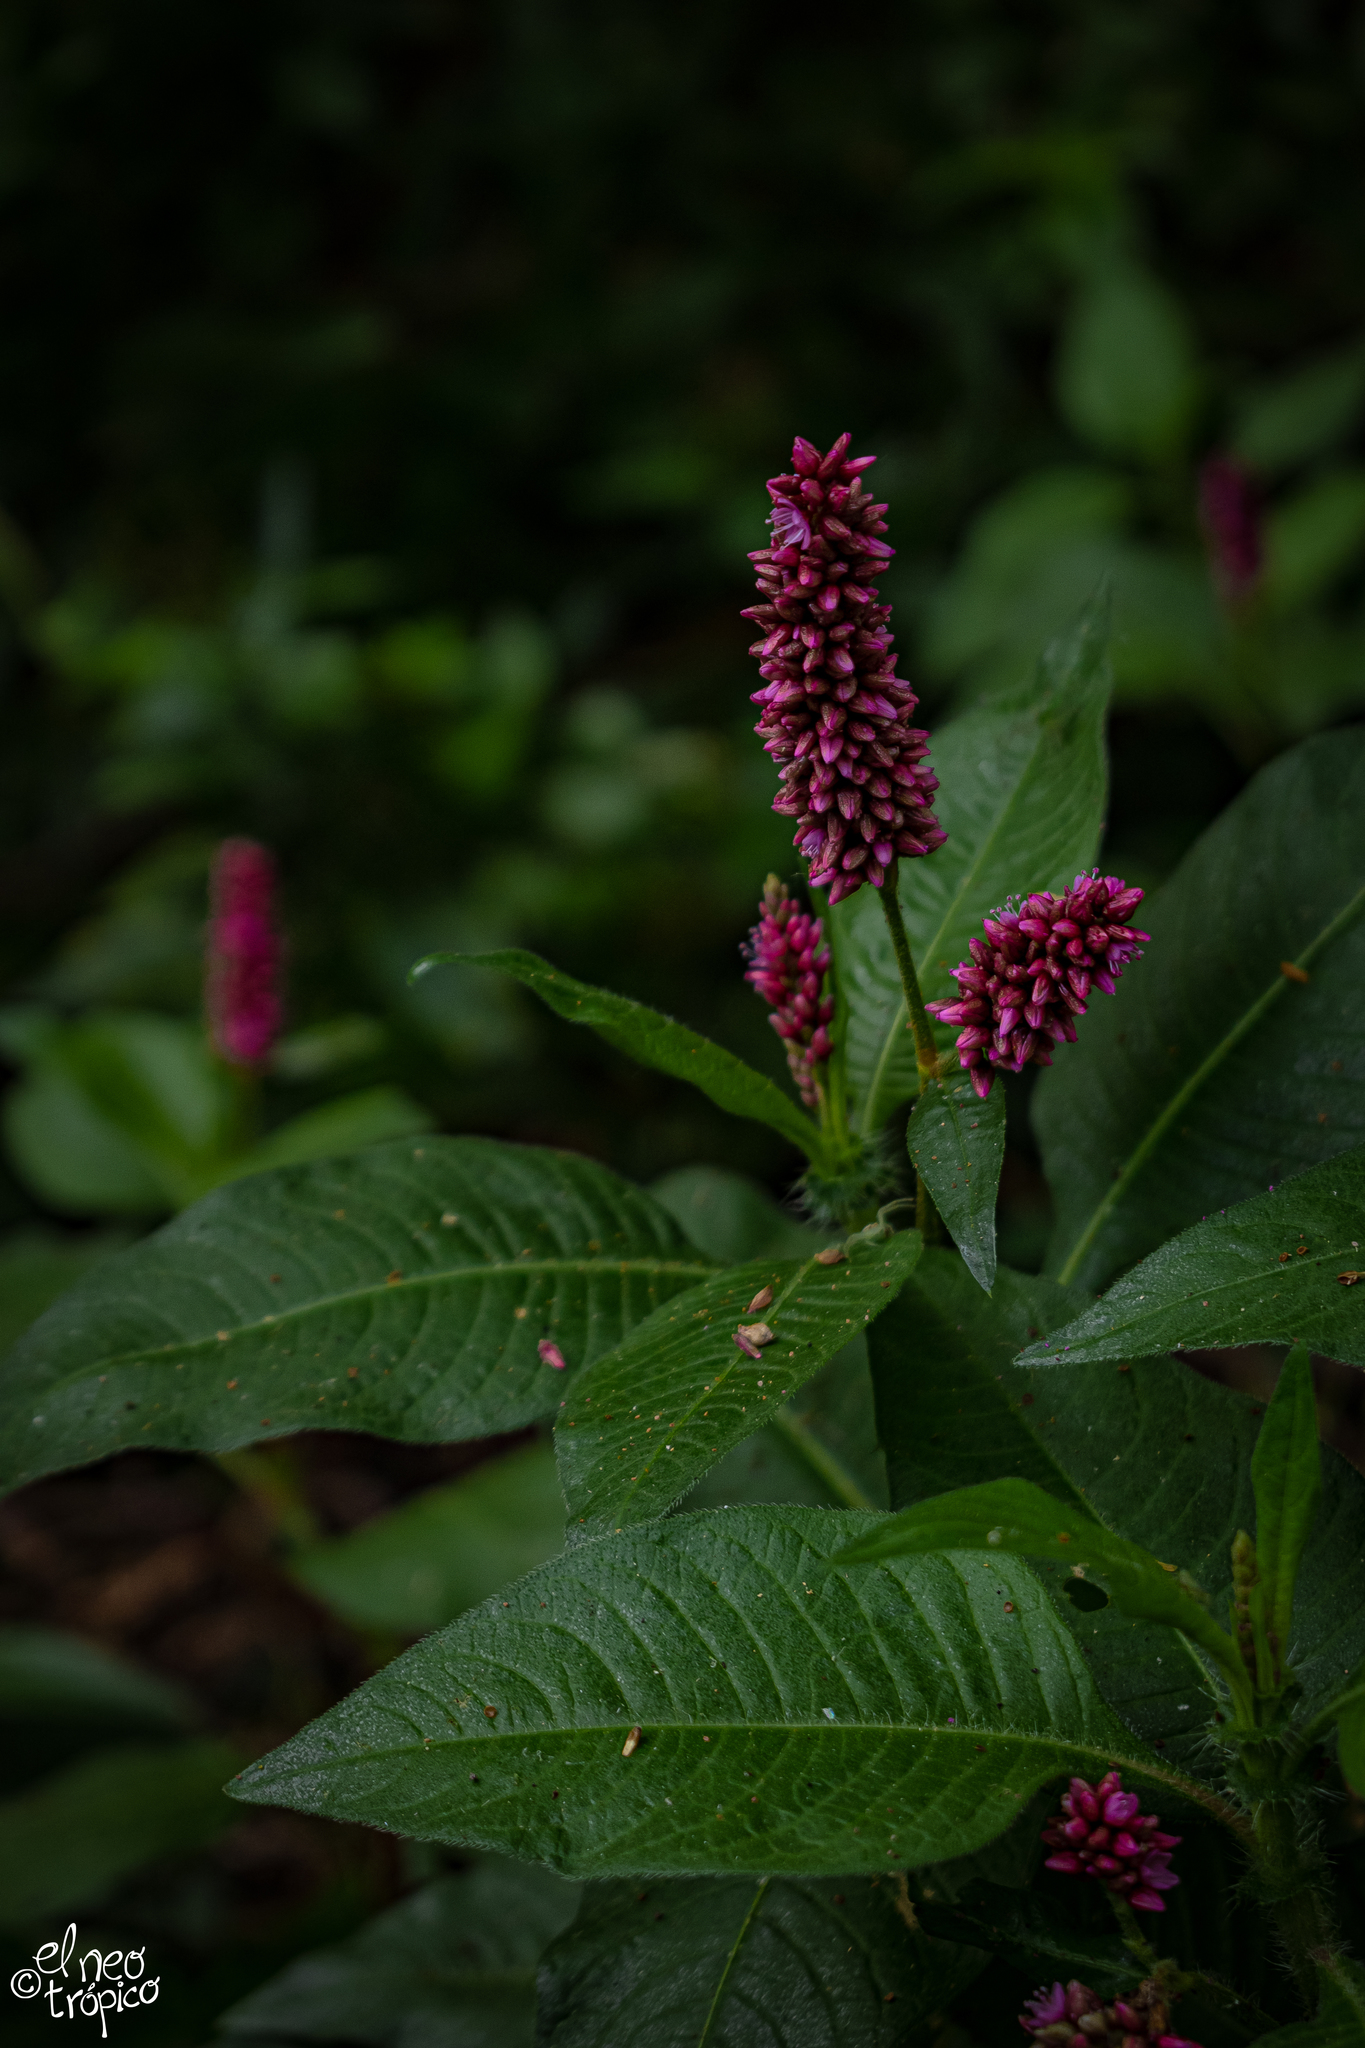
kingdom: Plantae
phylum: Tracheophyta
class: Magnoliopsida
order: Caryophyllales
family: Polygonaceae
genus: Persicaria
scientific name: Persicaria hispida
